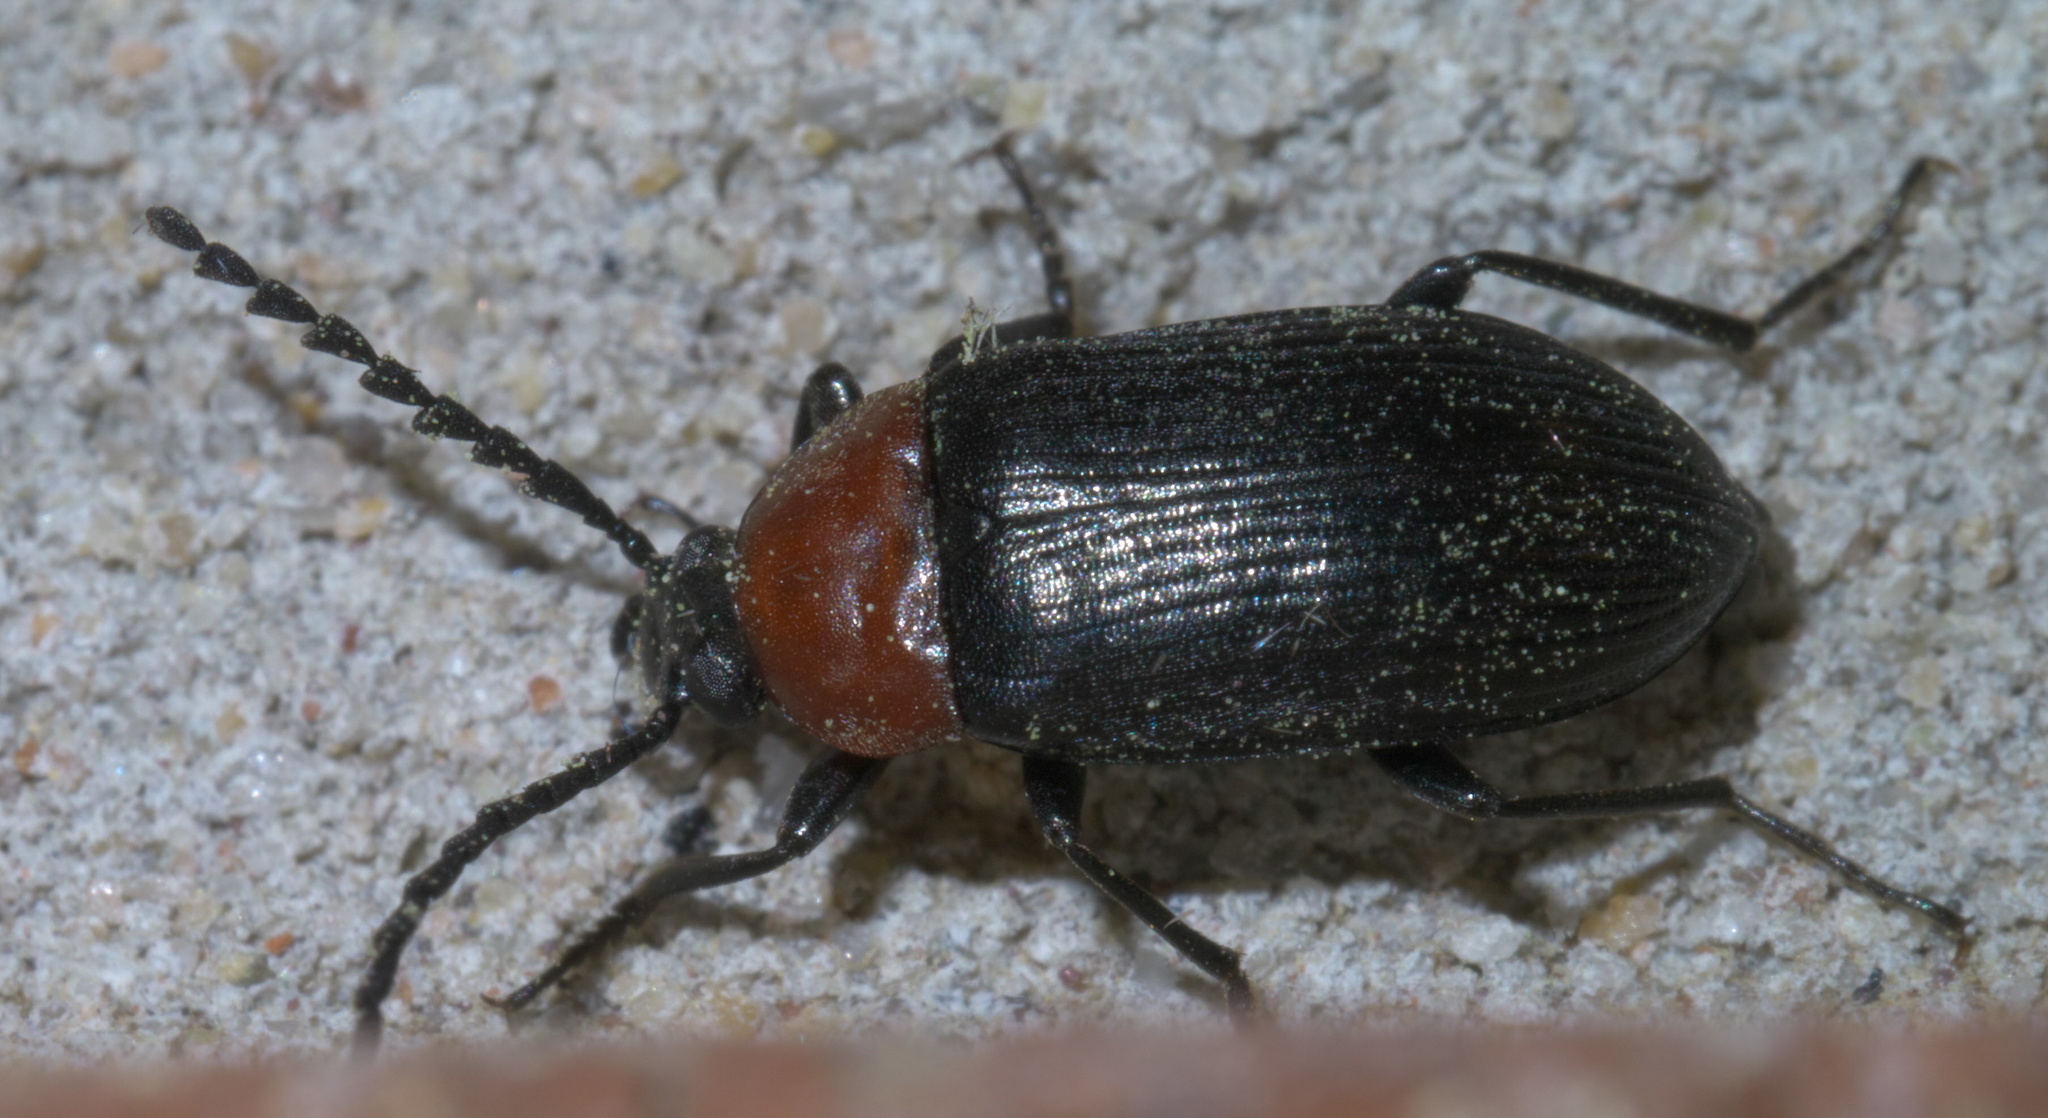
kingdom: Animalia
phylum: Arthropoda
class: Insecta
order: Coleoptera
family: Tenebrionidae
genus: Chromatia
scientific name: Chromatia amoena
